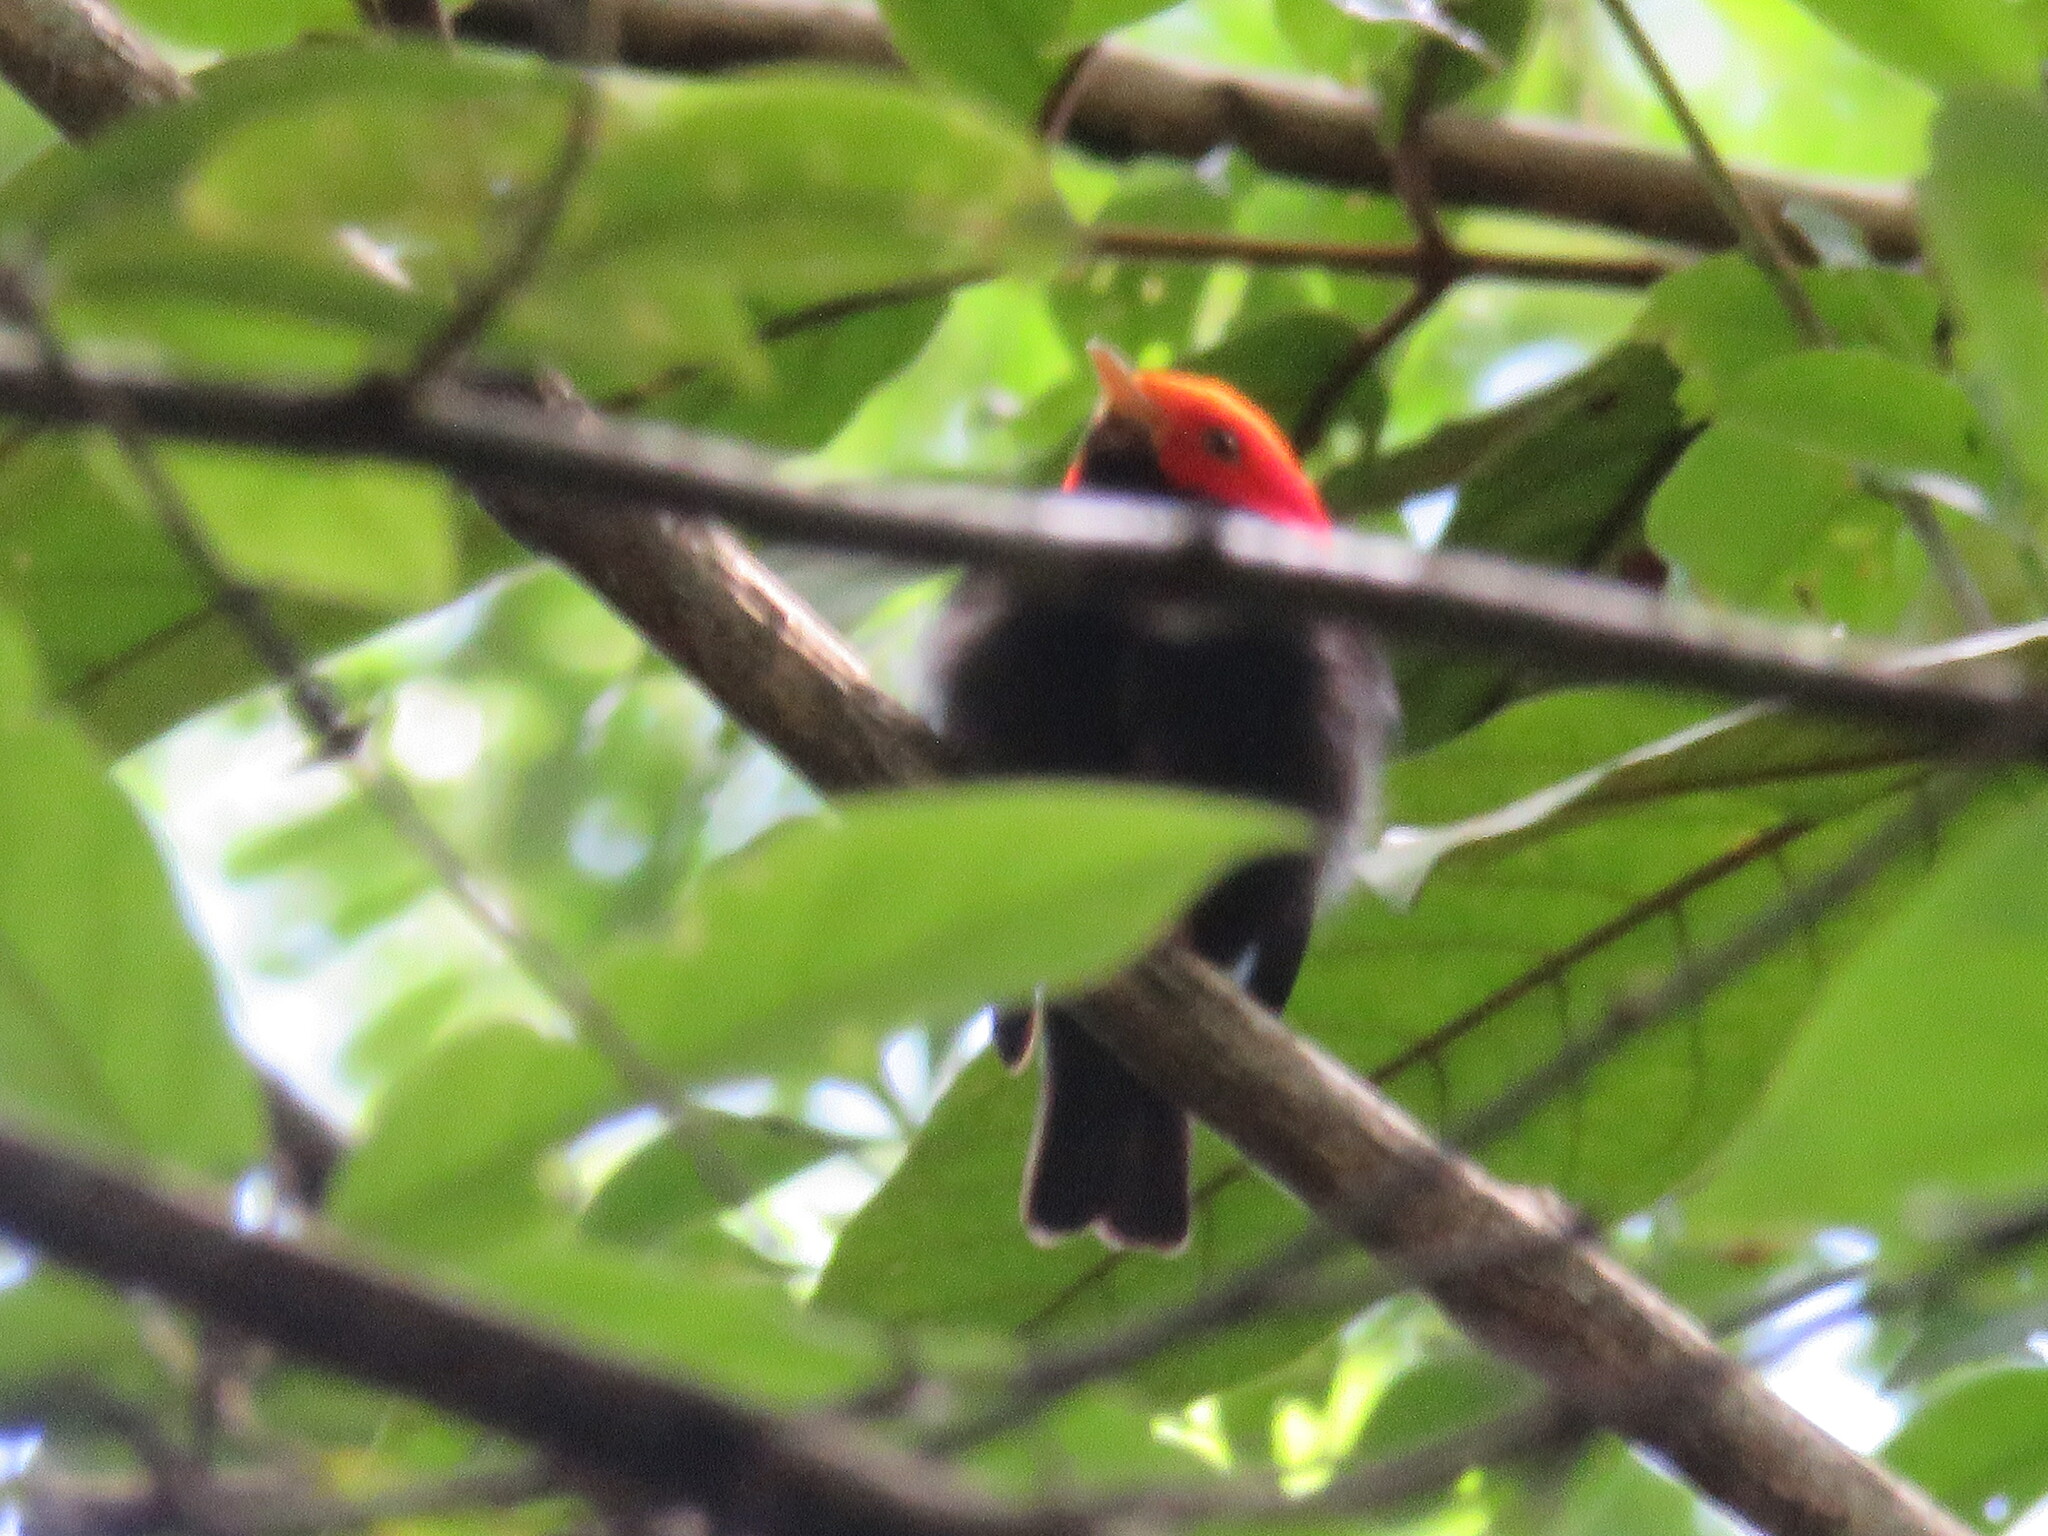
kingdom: Animalia
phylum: Chordata
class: Aves
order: Passeriformes
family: Pipridae
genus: Pipra
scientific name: Pipra rubrocapilla
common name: Red-headed manakin
